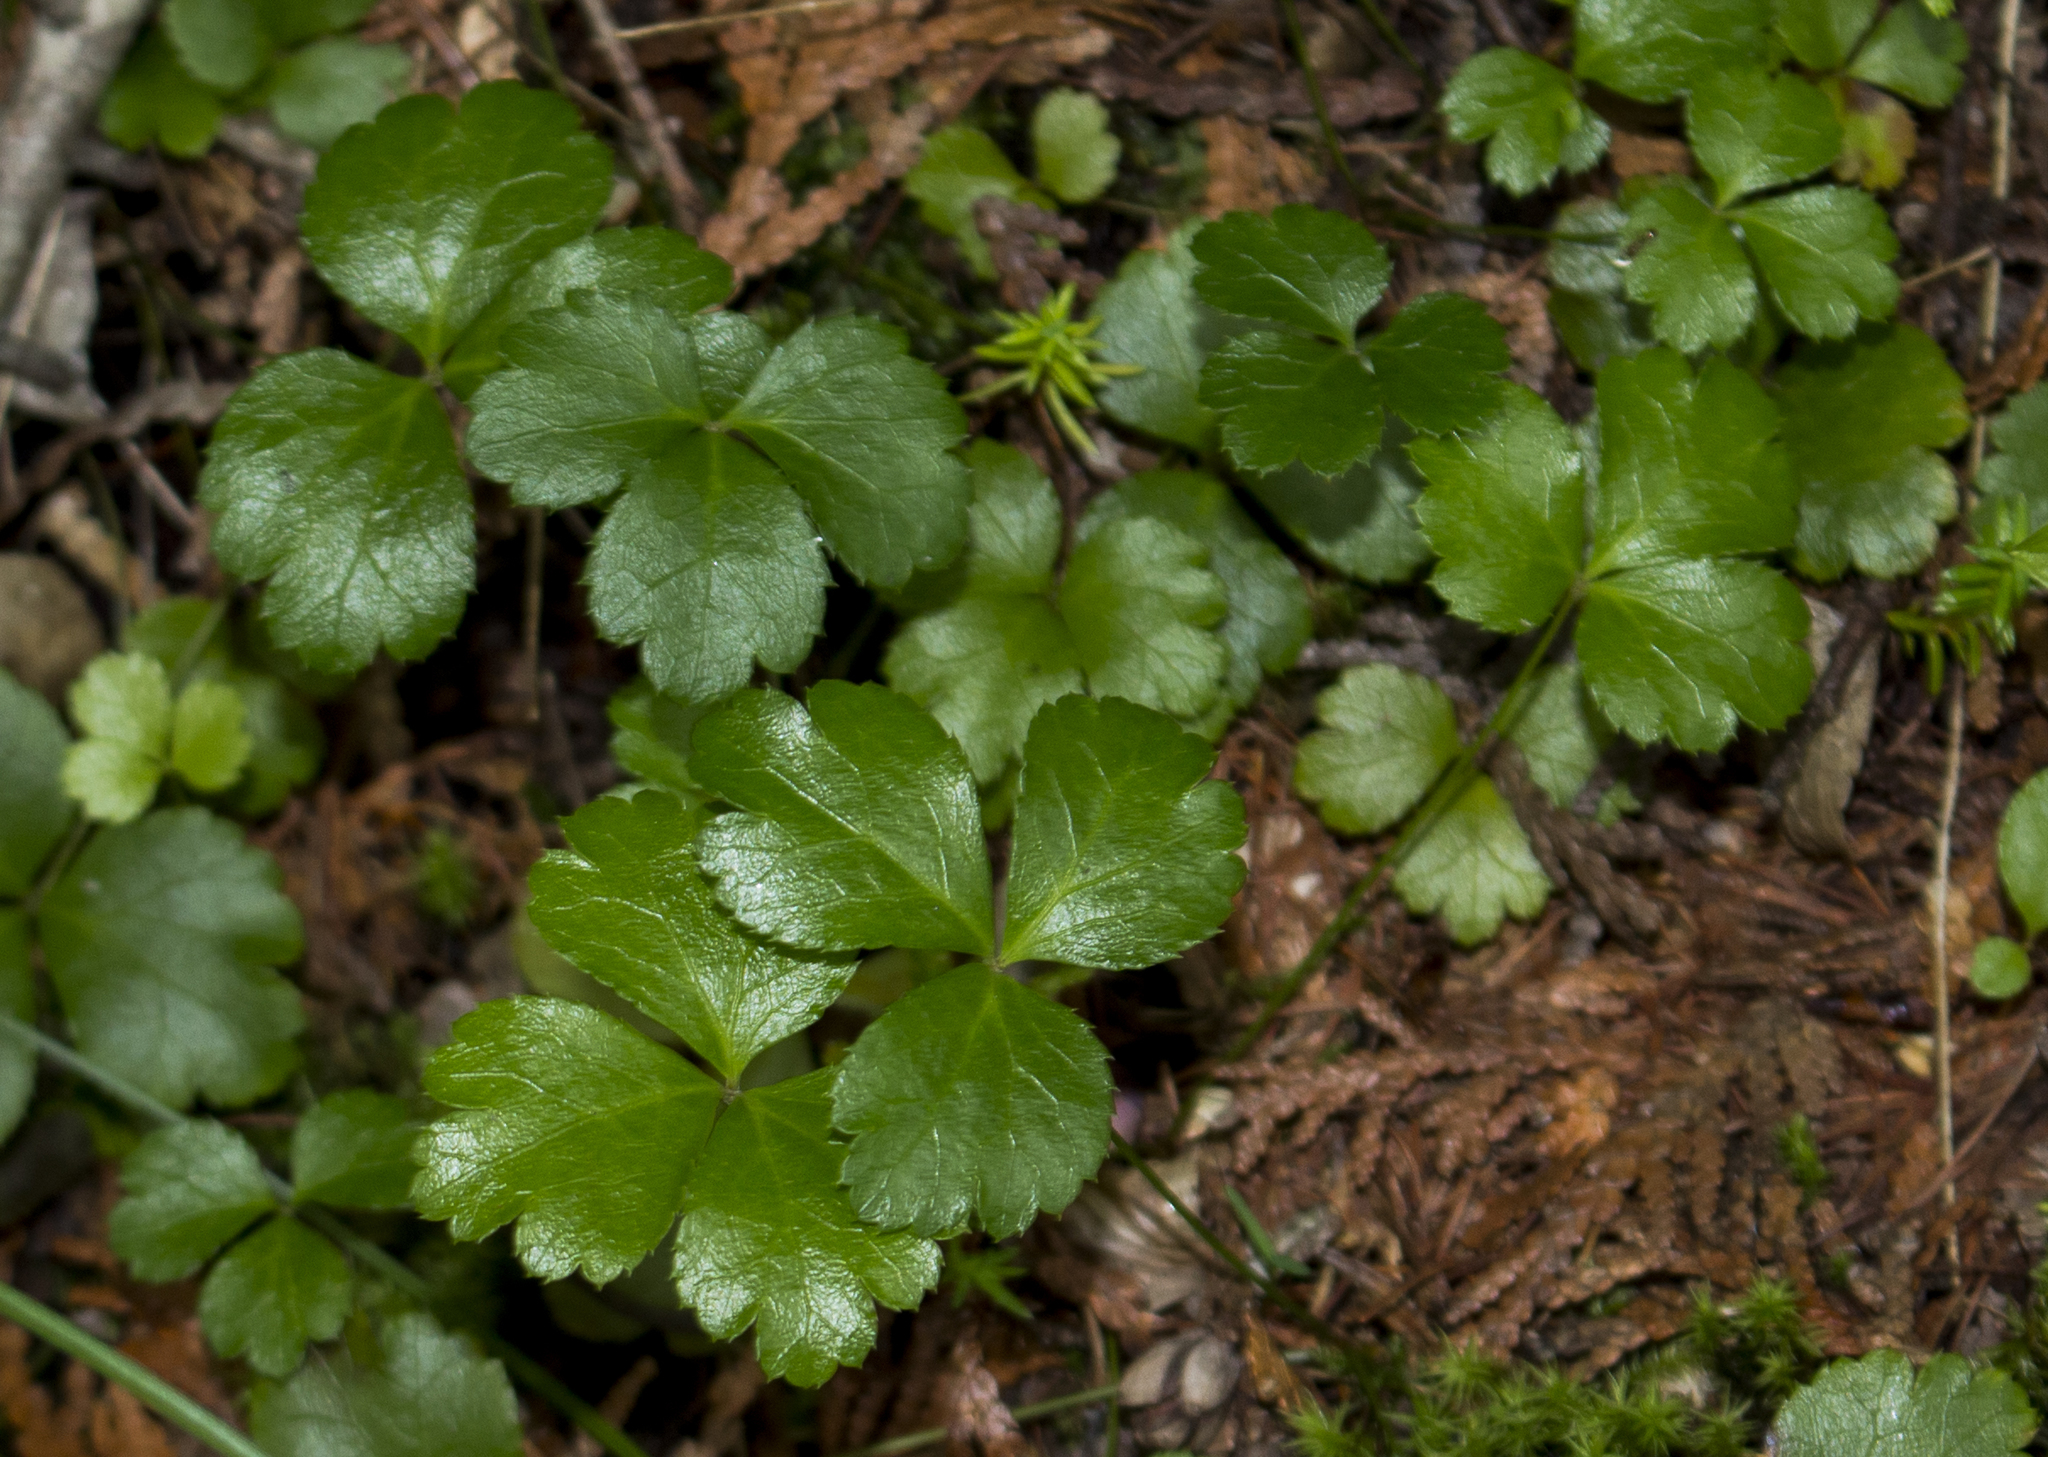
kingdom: Plantae
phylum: Tracheophyta
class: Magnoliopsida
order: Ranunculales
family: Ranunculaceae
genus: Coptis
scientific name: Coptis trifolia
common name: Canker-root
